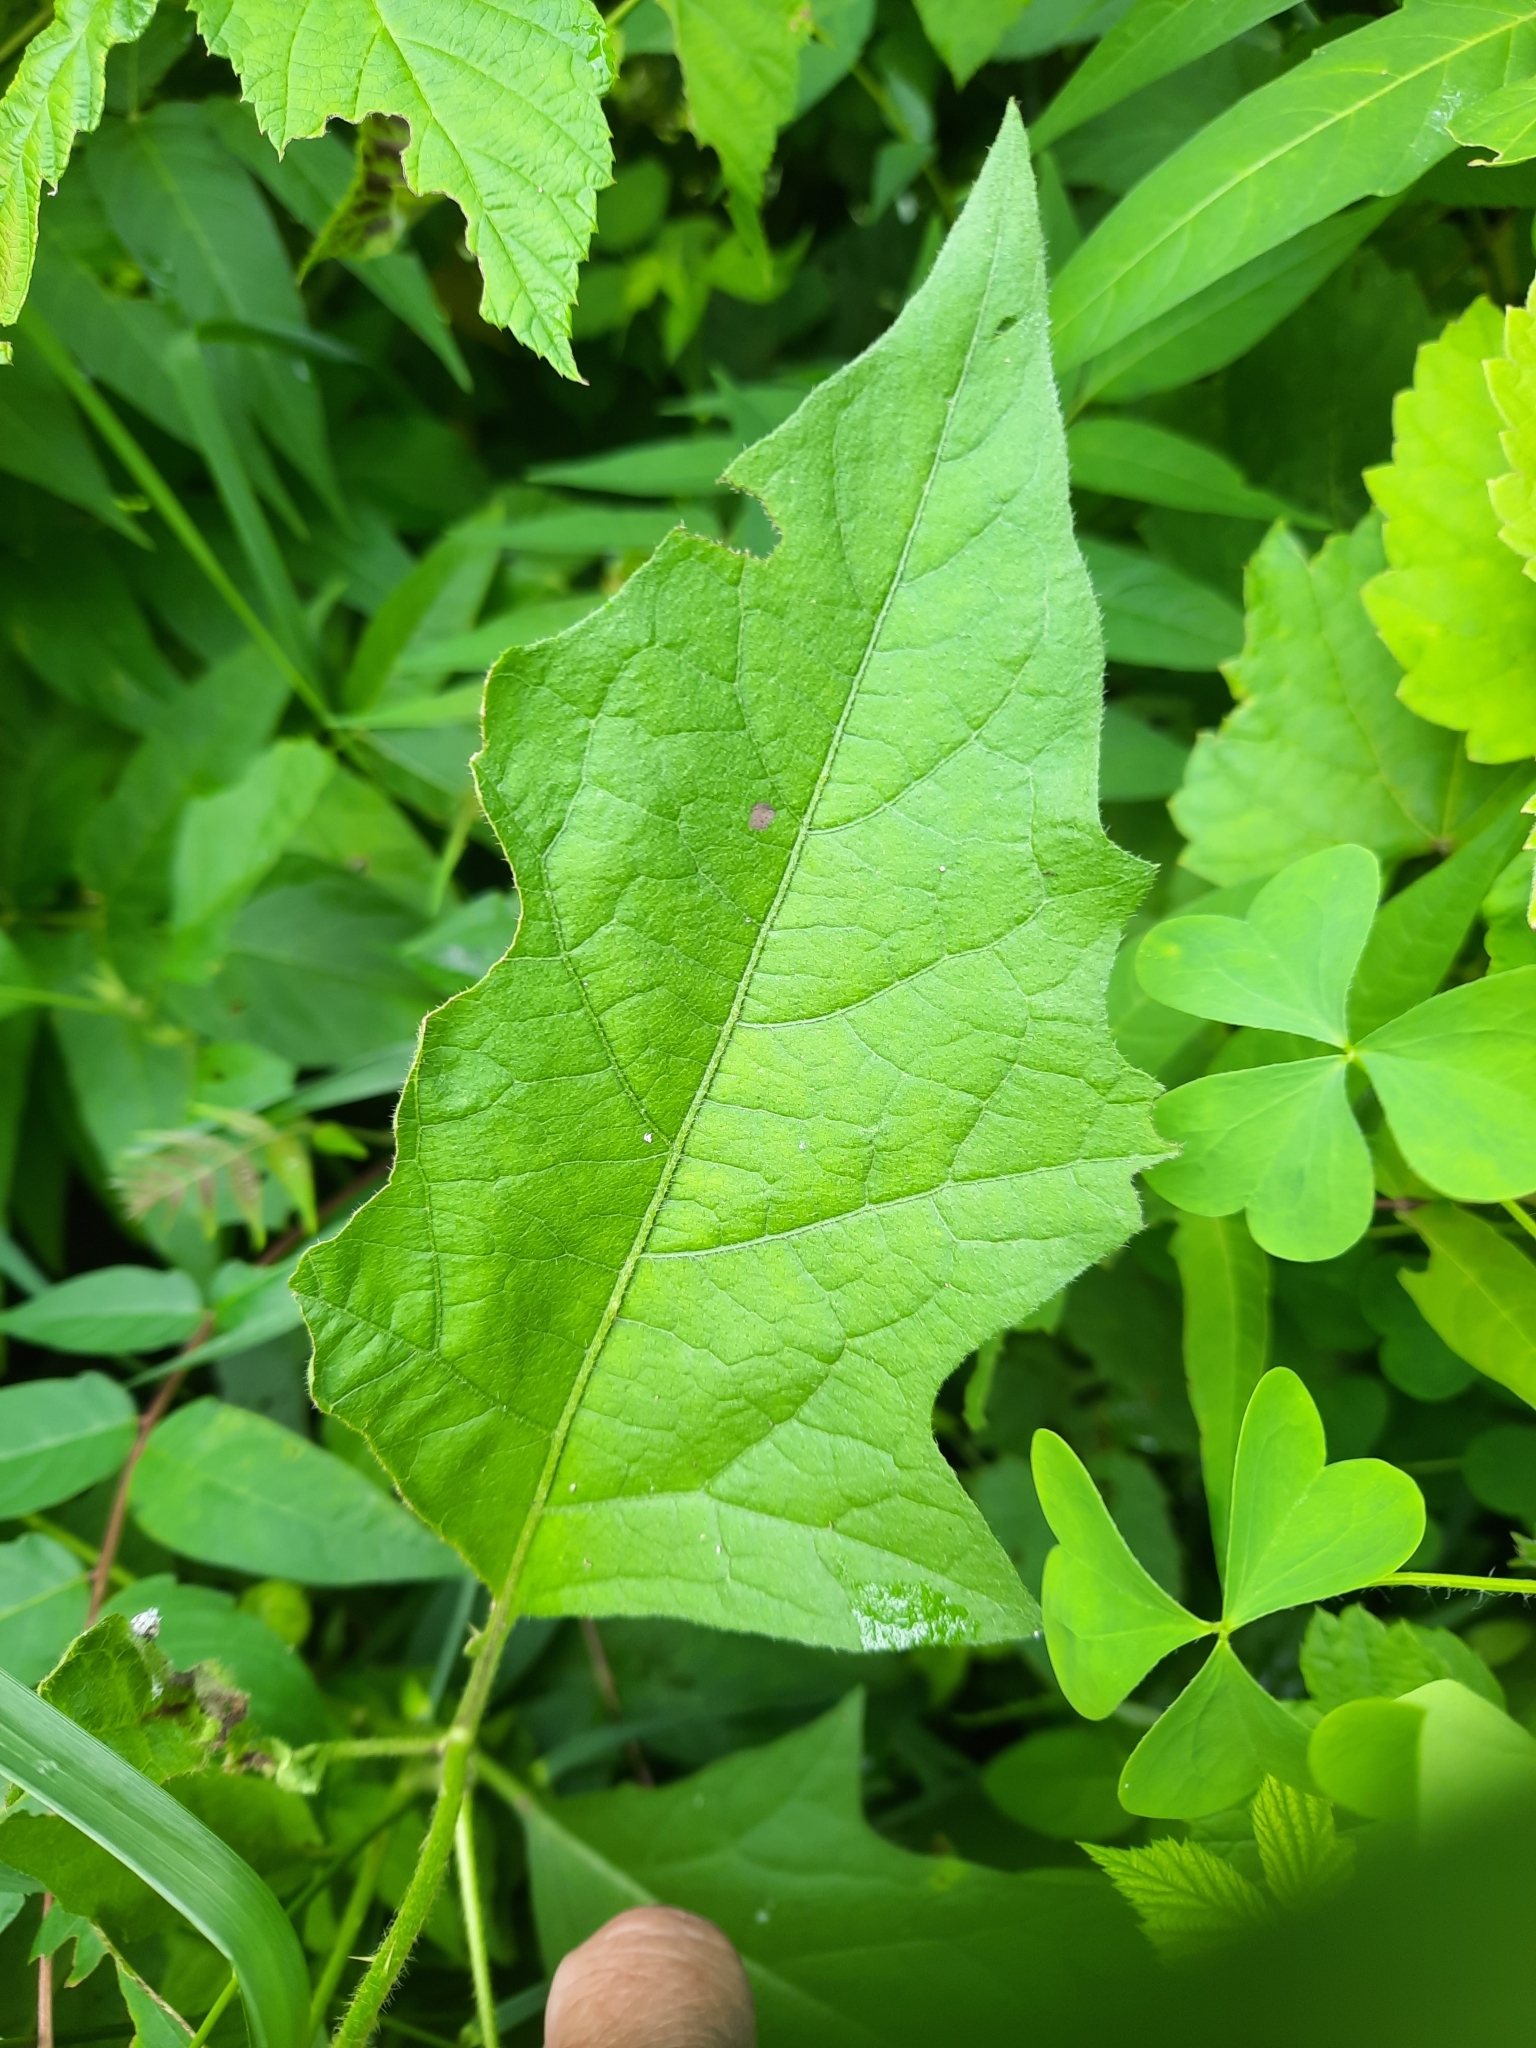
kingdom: Plantae
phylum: Tracheophyta
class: Magnoliopsida
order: Solanales
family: Solanaceae
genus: Solanum
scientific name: Solanum carolinense
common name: Horse-nettle
